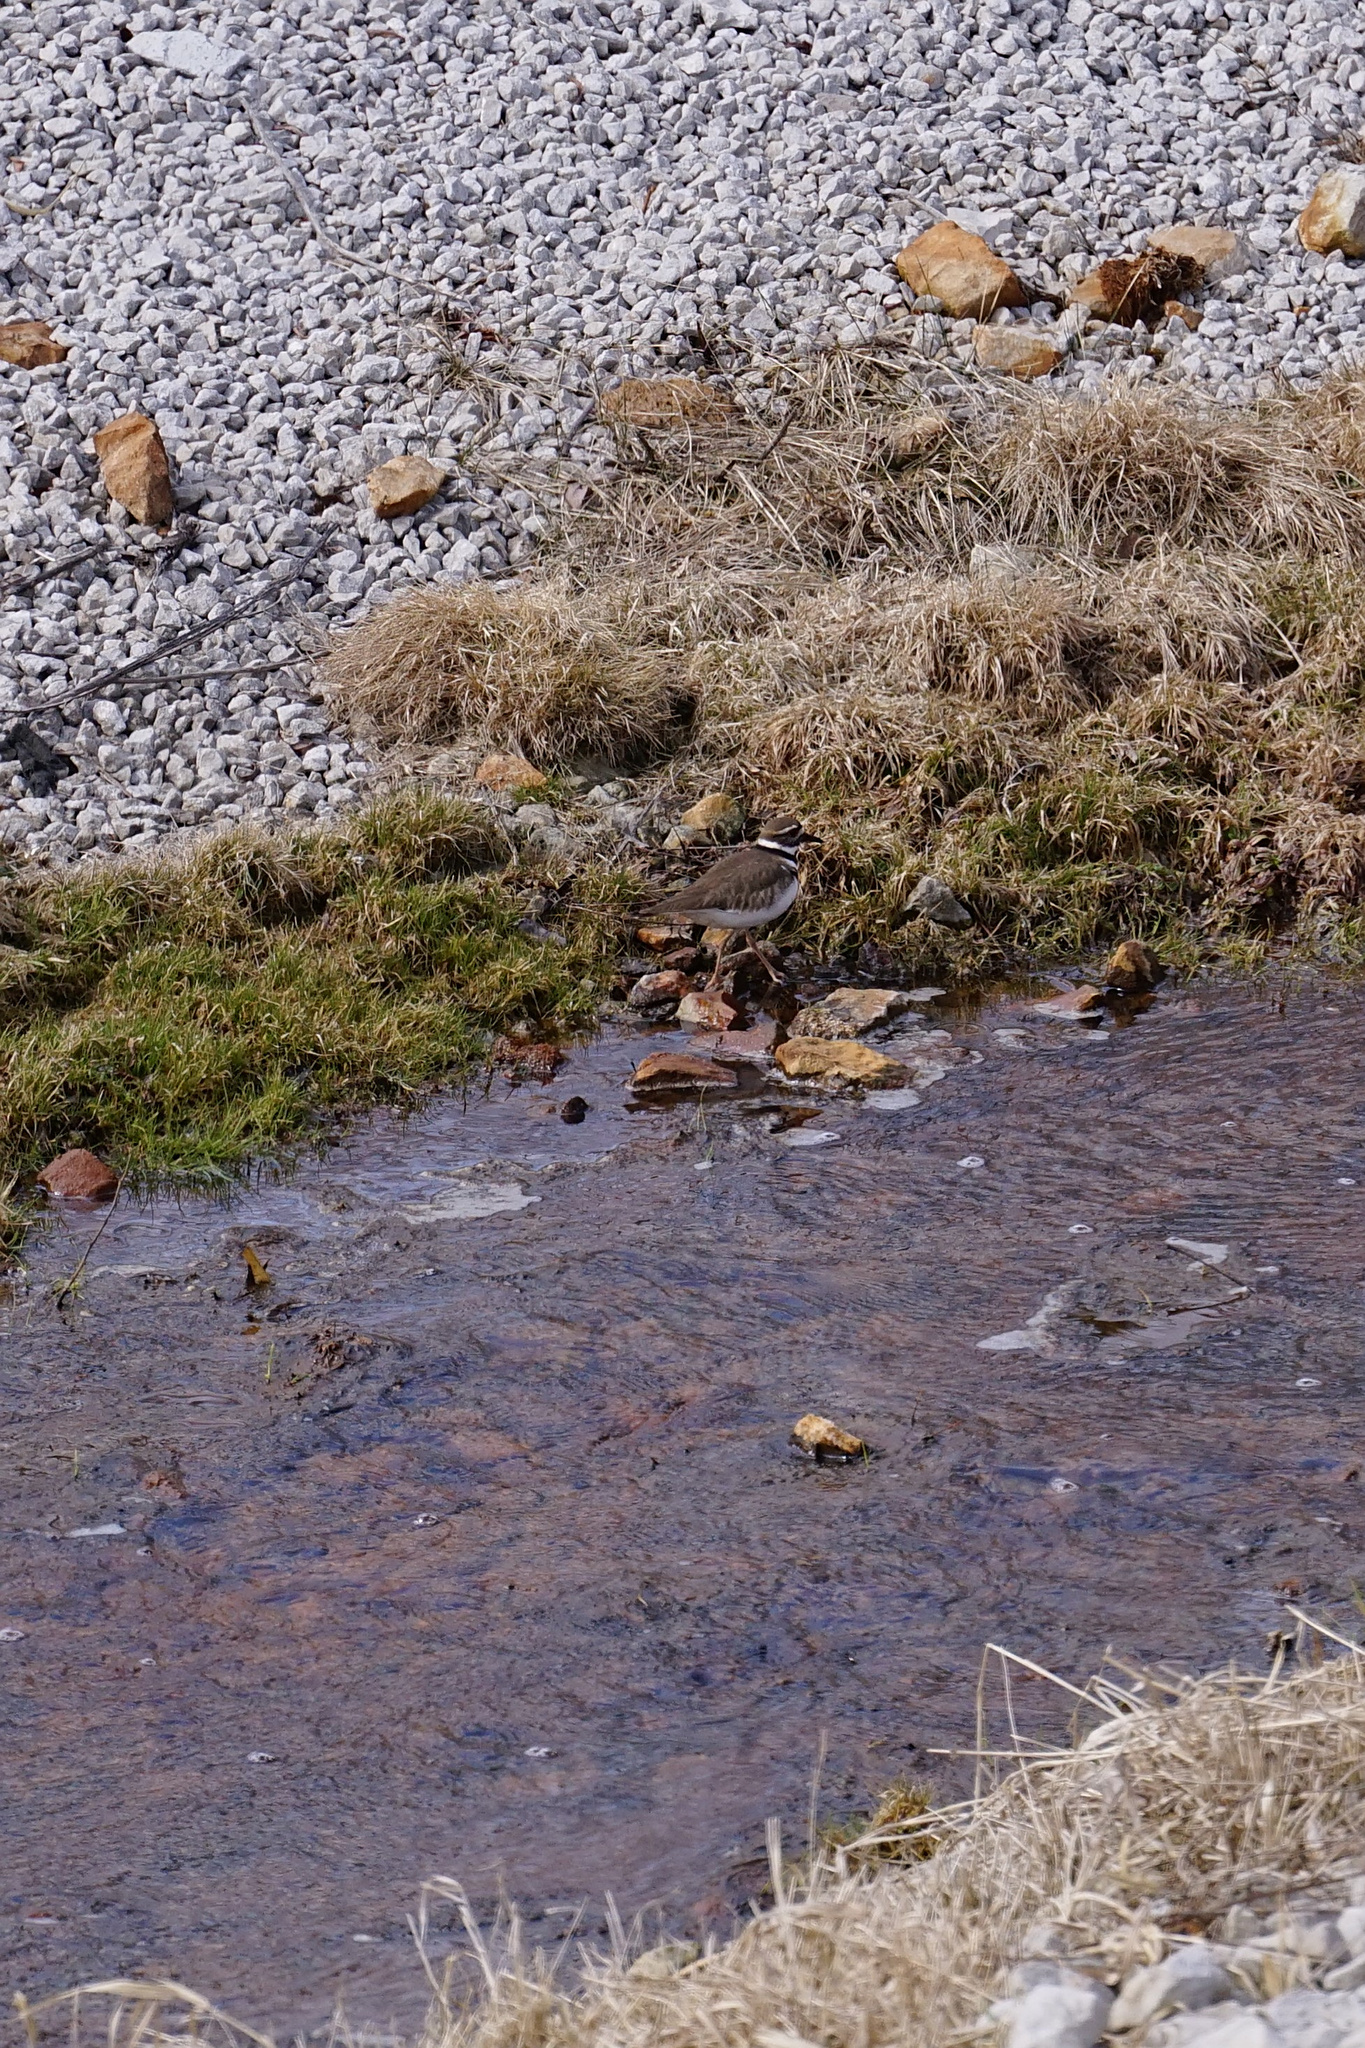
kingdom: Animalia
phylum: Chordata
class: Aves
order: Charadriiformes
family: Charadriidae
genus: Charadrius
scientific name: Charadrius vociferus
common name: Killdeer
